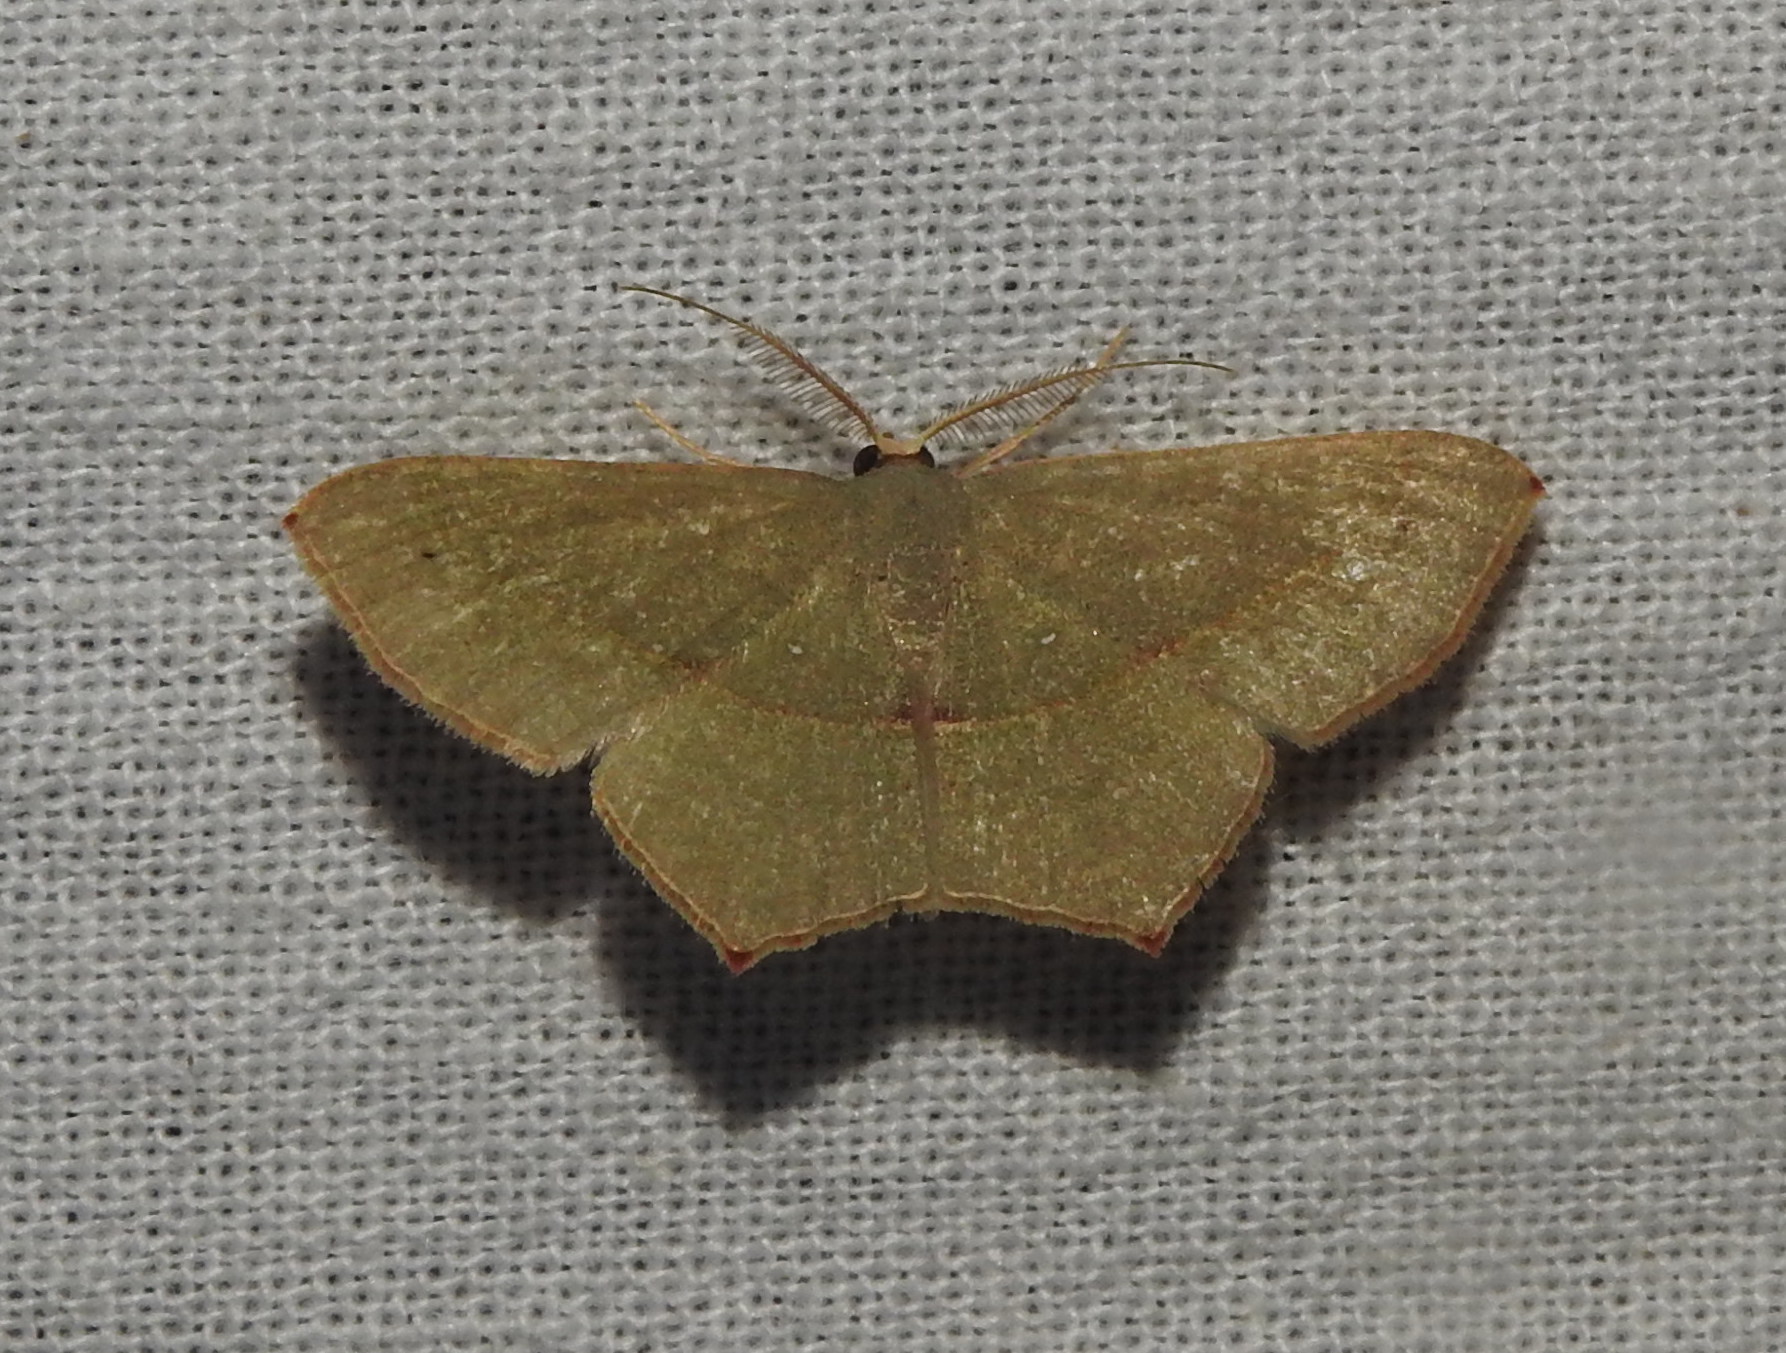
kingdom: Animalia
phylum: Arthropoda
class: Insecta
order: Lepidoptera
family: Geometridae
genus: Traminda
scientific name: Traminda mundissima
